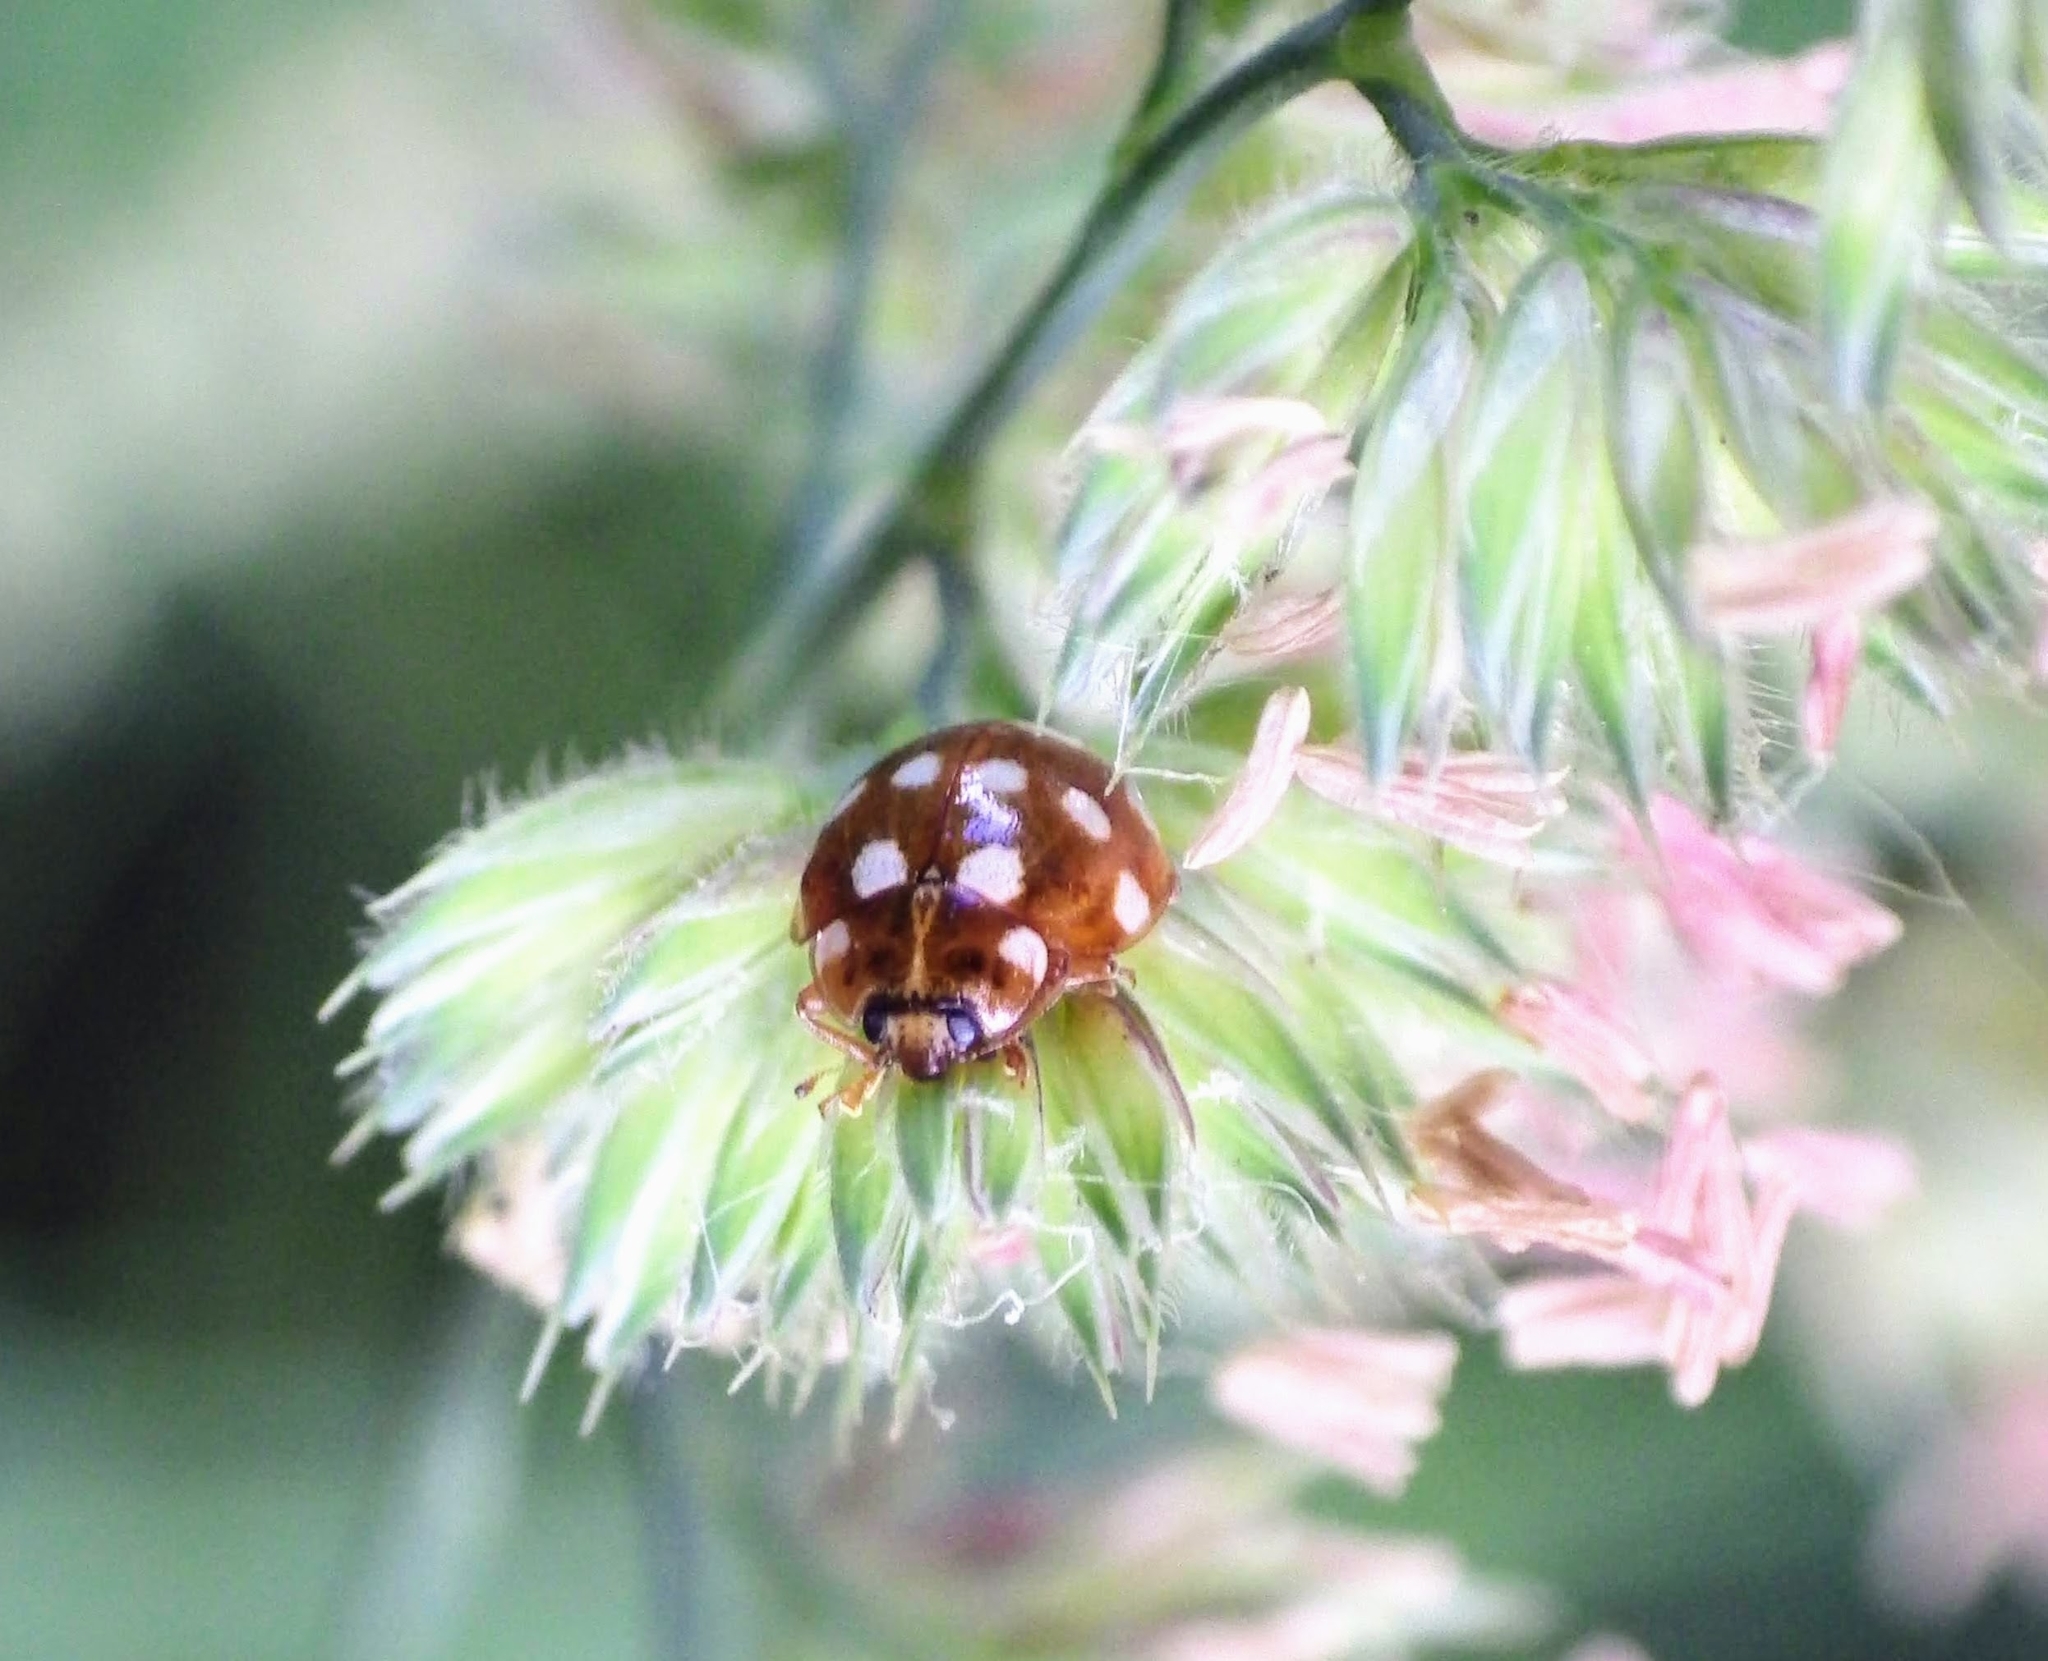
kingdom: Animalia
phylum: Arthropoda
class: Insecta
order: Coleoptera
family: Coccinellidae
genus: Calvia
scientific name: Calvia quatuordecimguttata
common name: Cream-spot ladybird
